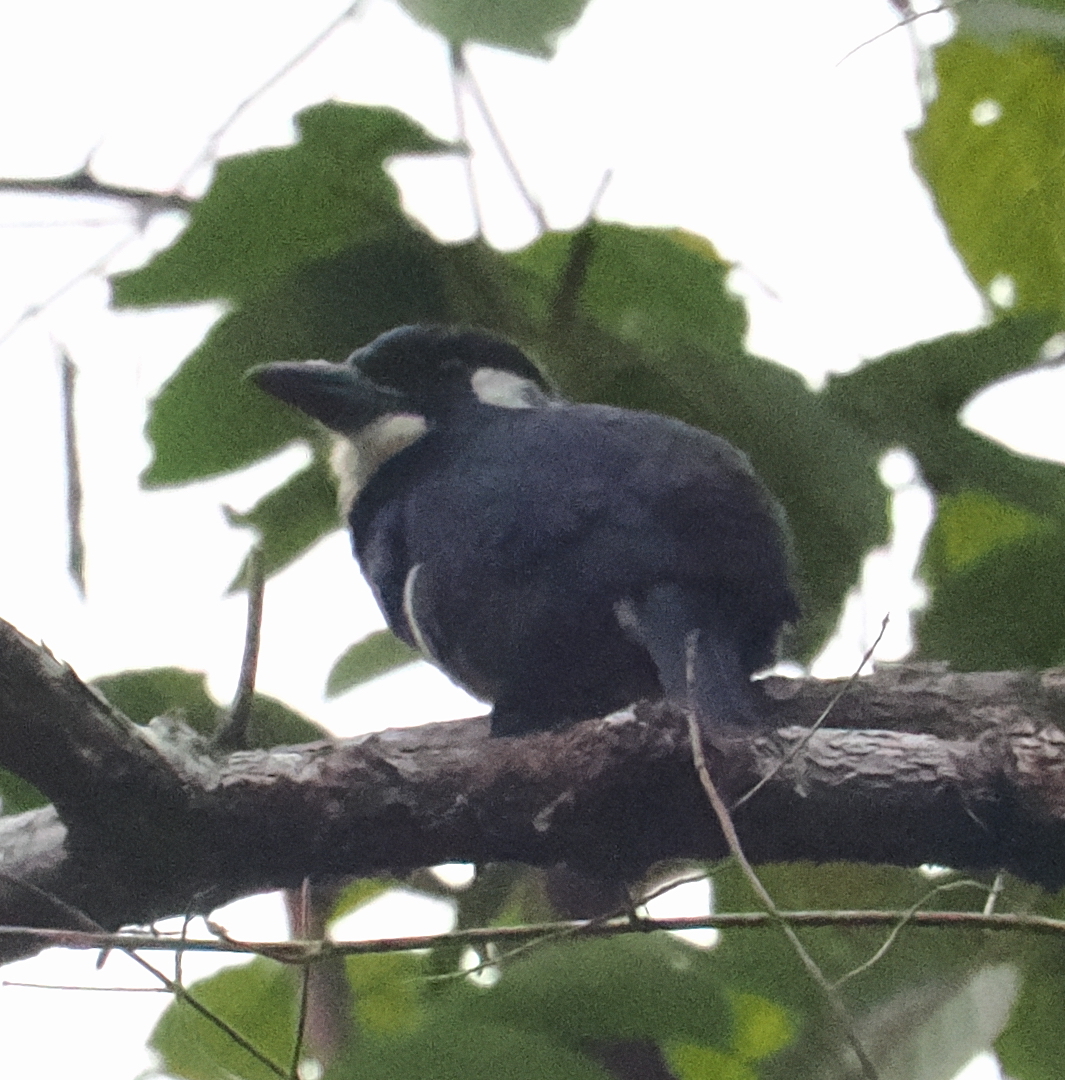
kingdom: Animalia
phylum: Chordata
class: Aves
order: Piciformes
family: Bucconidae
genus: Notharchus
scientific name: Notharchus pectoralis
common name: Black-breasted puffbird
